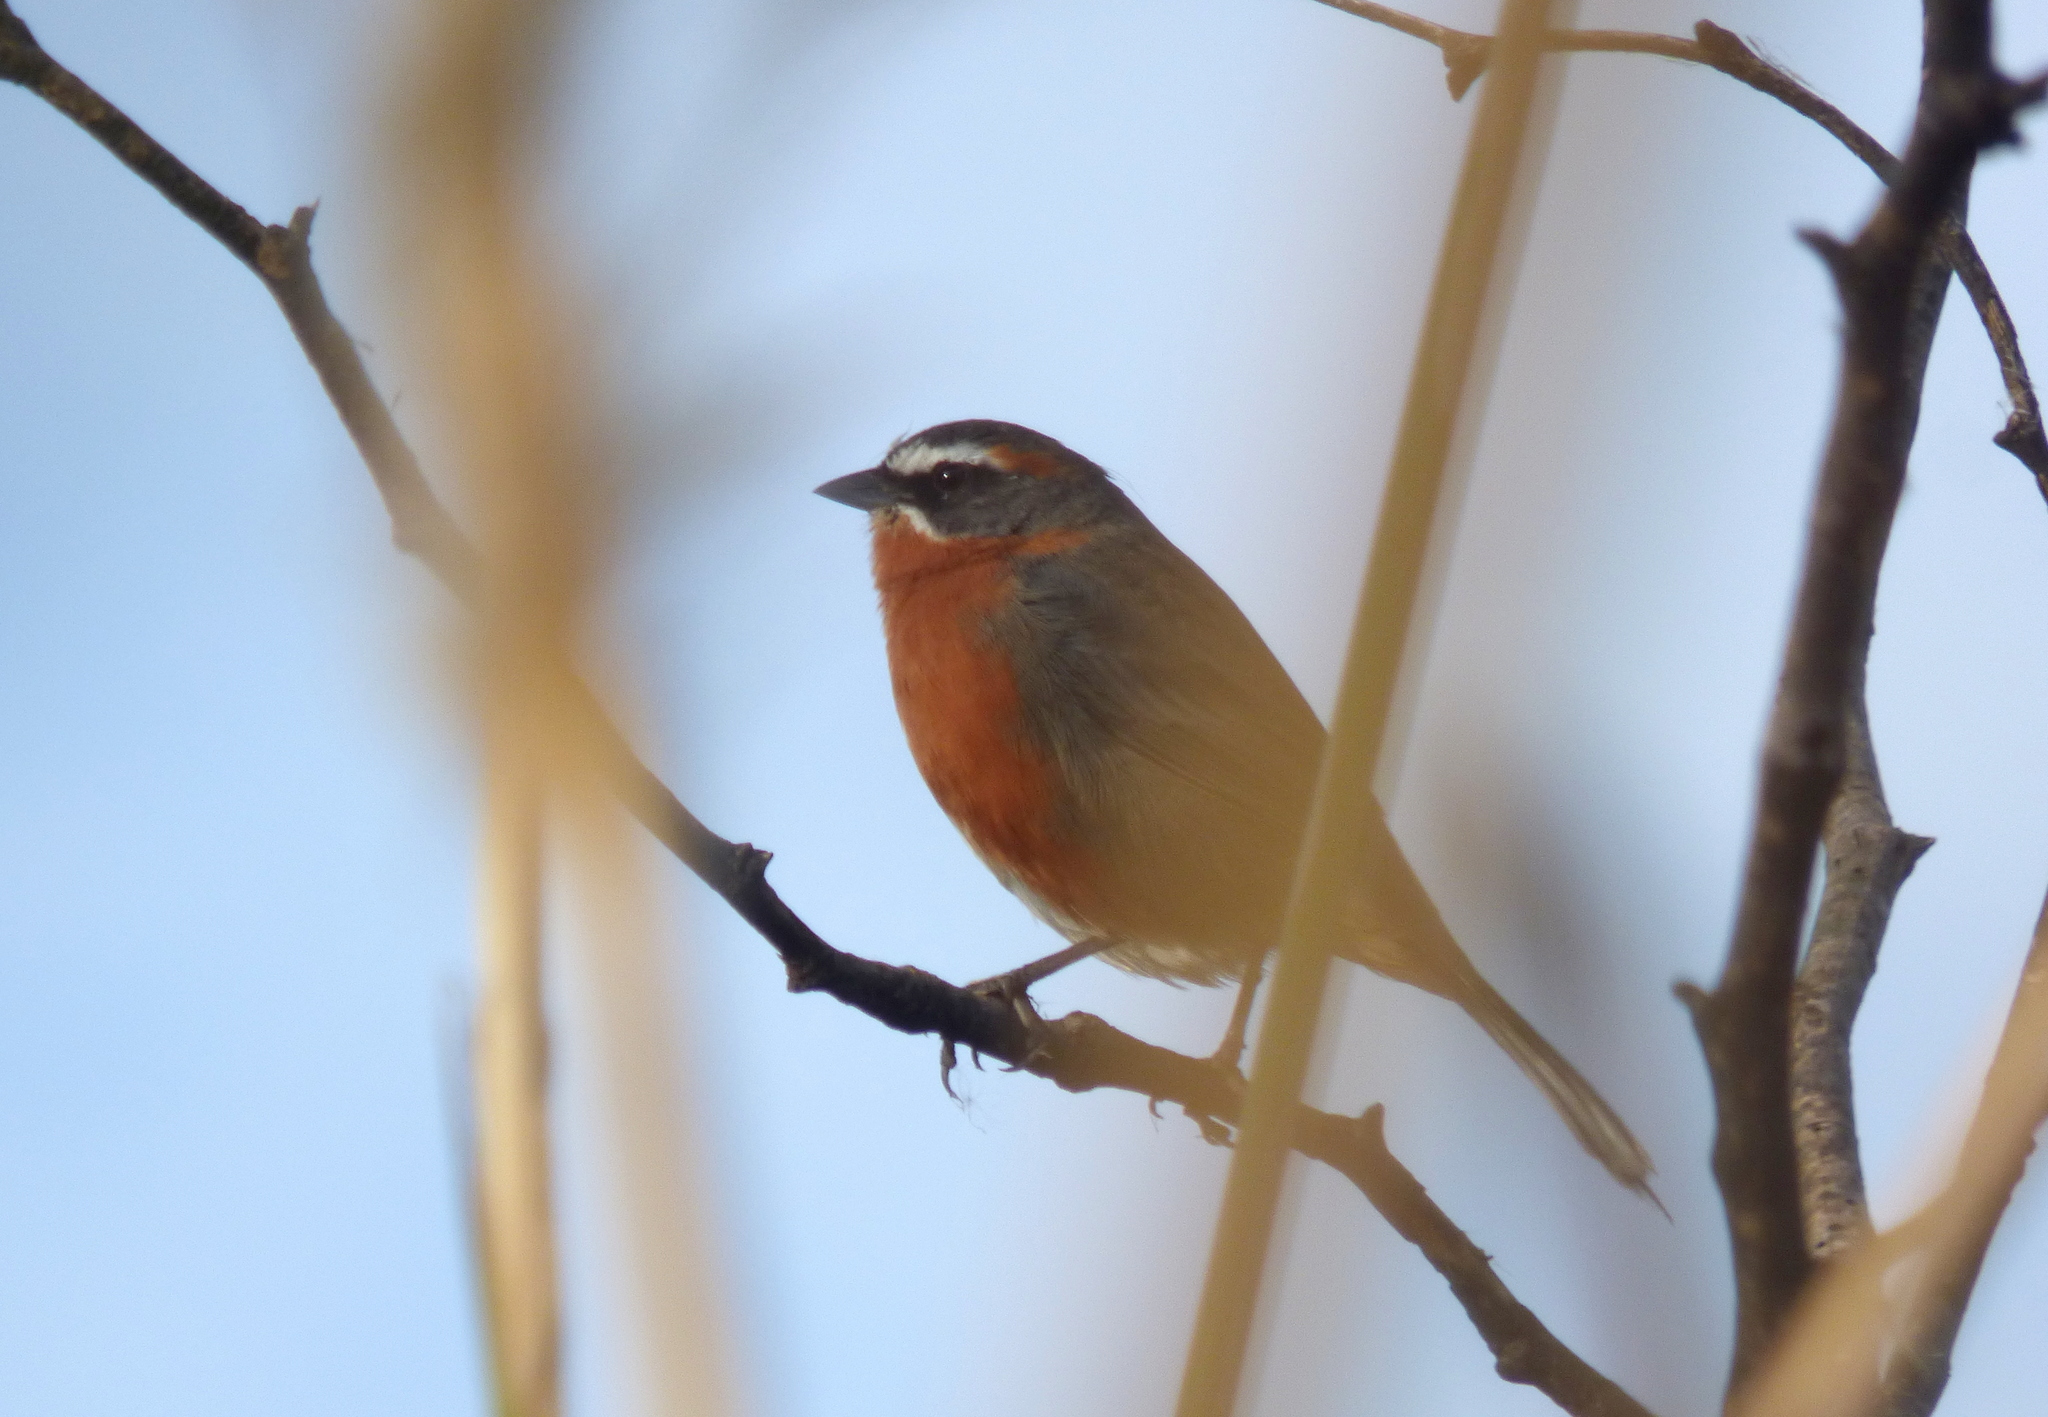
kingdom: Animalia
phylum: Chordata
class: Aves
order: Passeriformes
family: Thraupidae
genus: Poospiza
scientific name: Poospiza nigrorufa
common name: Black-and-rufous warbling finch
